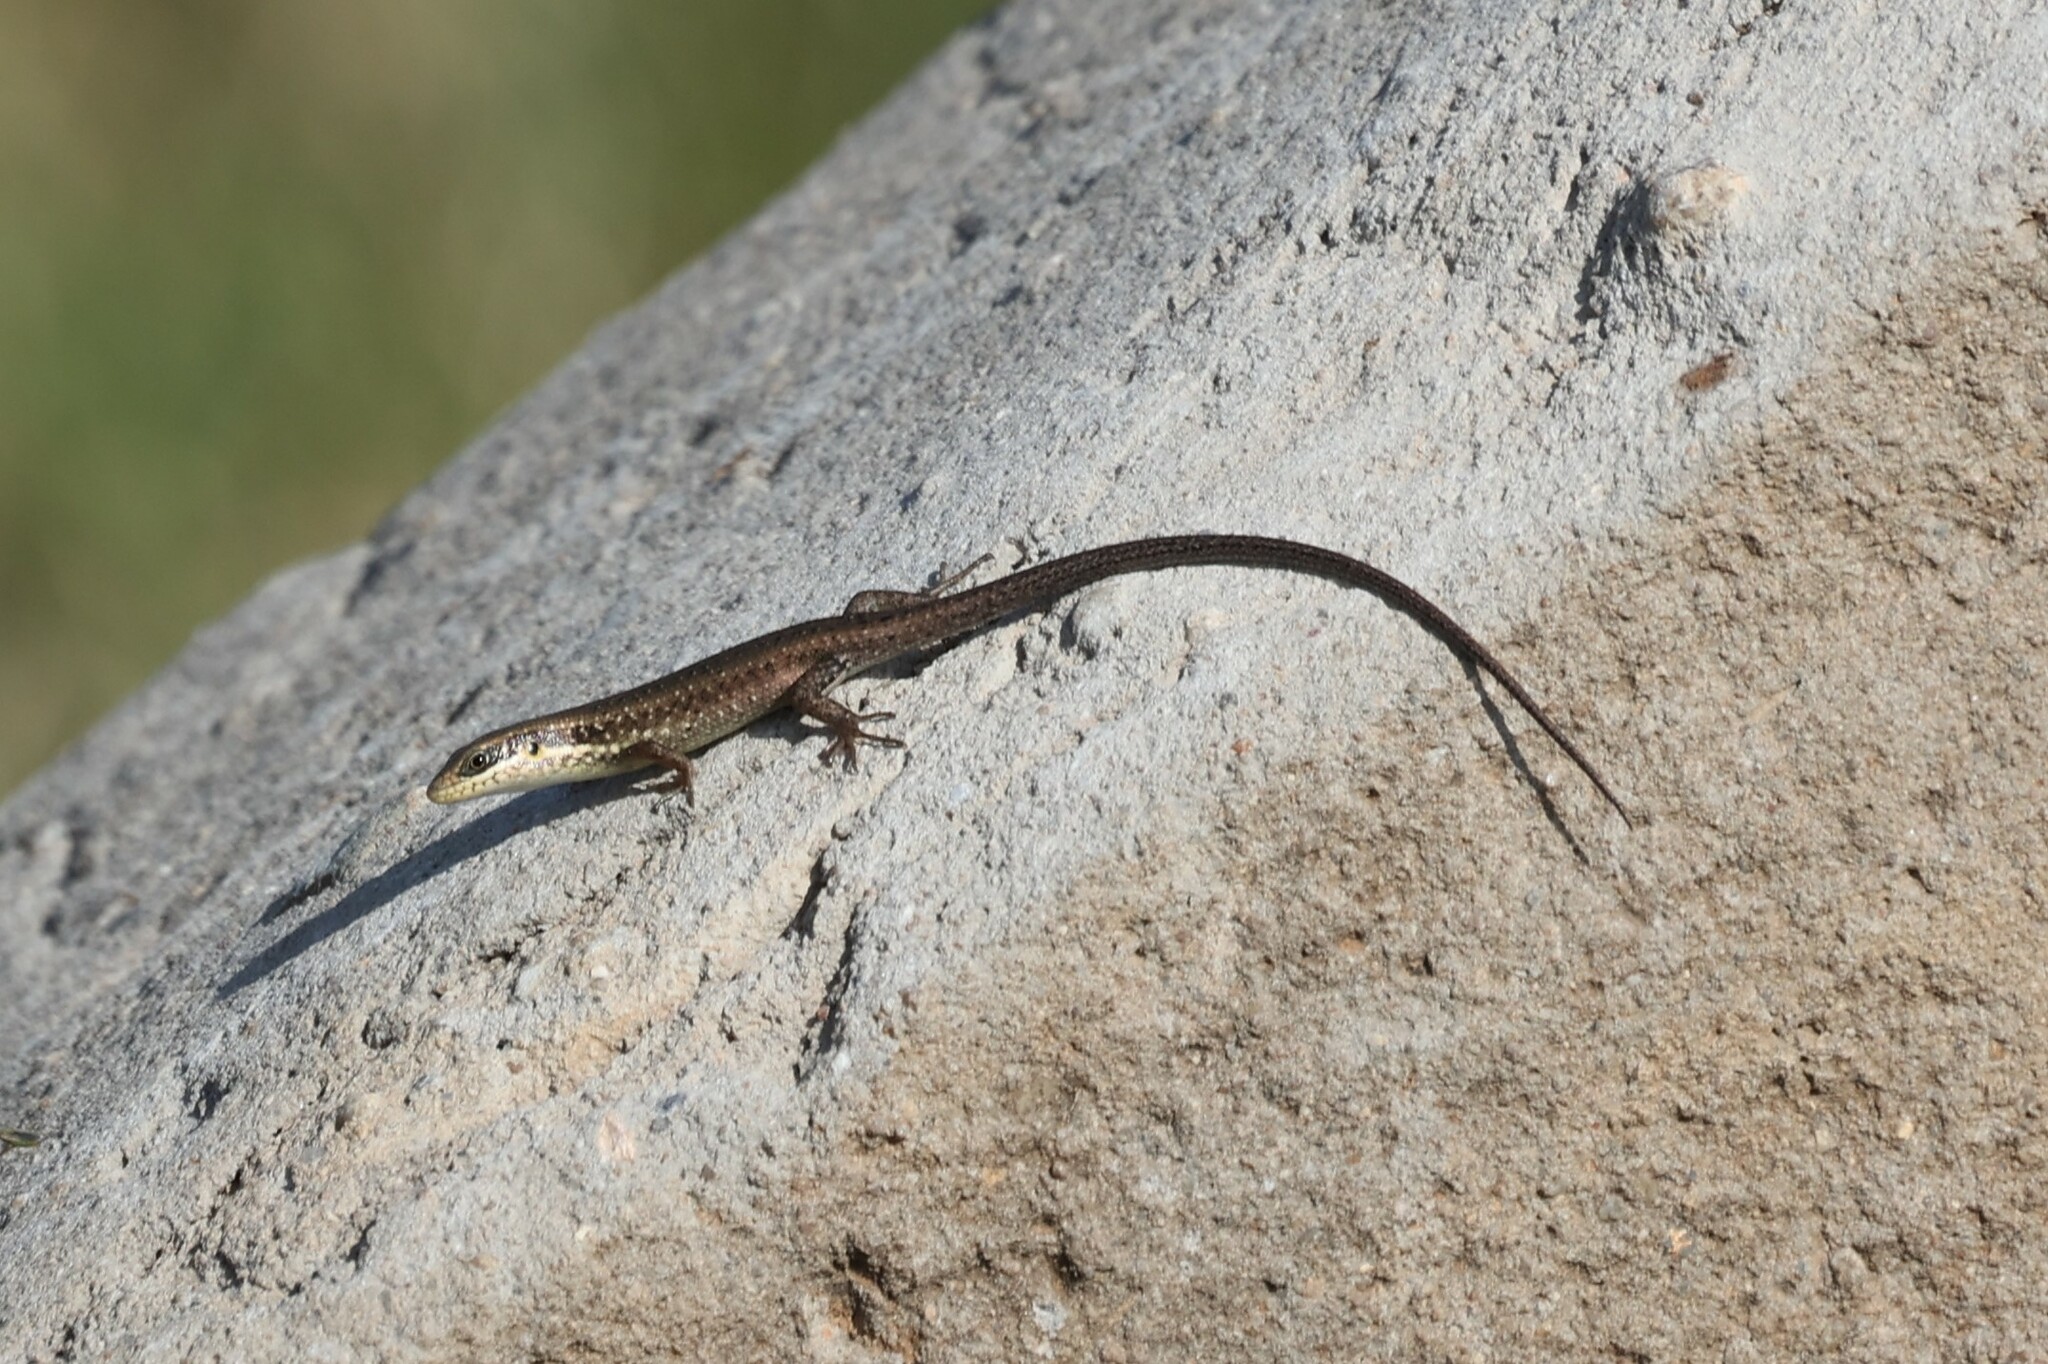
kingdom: Animalia
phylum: Chordata
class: Squamata
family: Scincidae
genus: Trachylepis
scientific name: Trachylepis maculilabris
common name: Speckle-lipped mabuya
